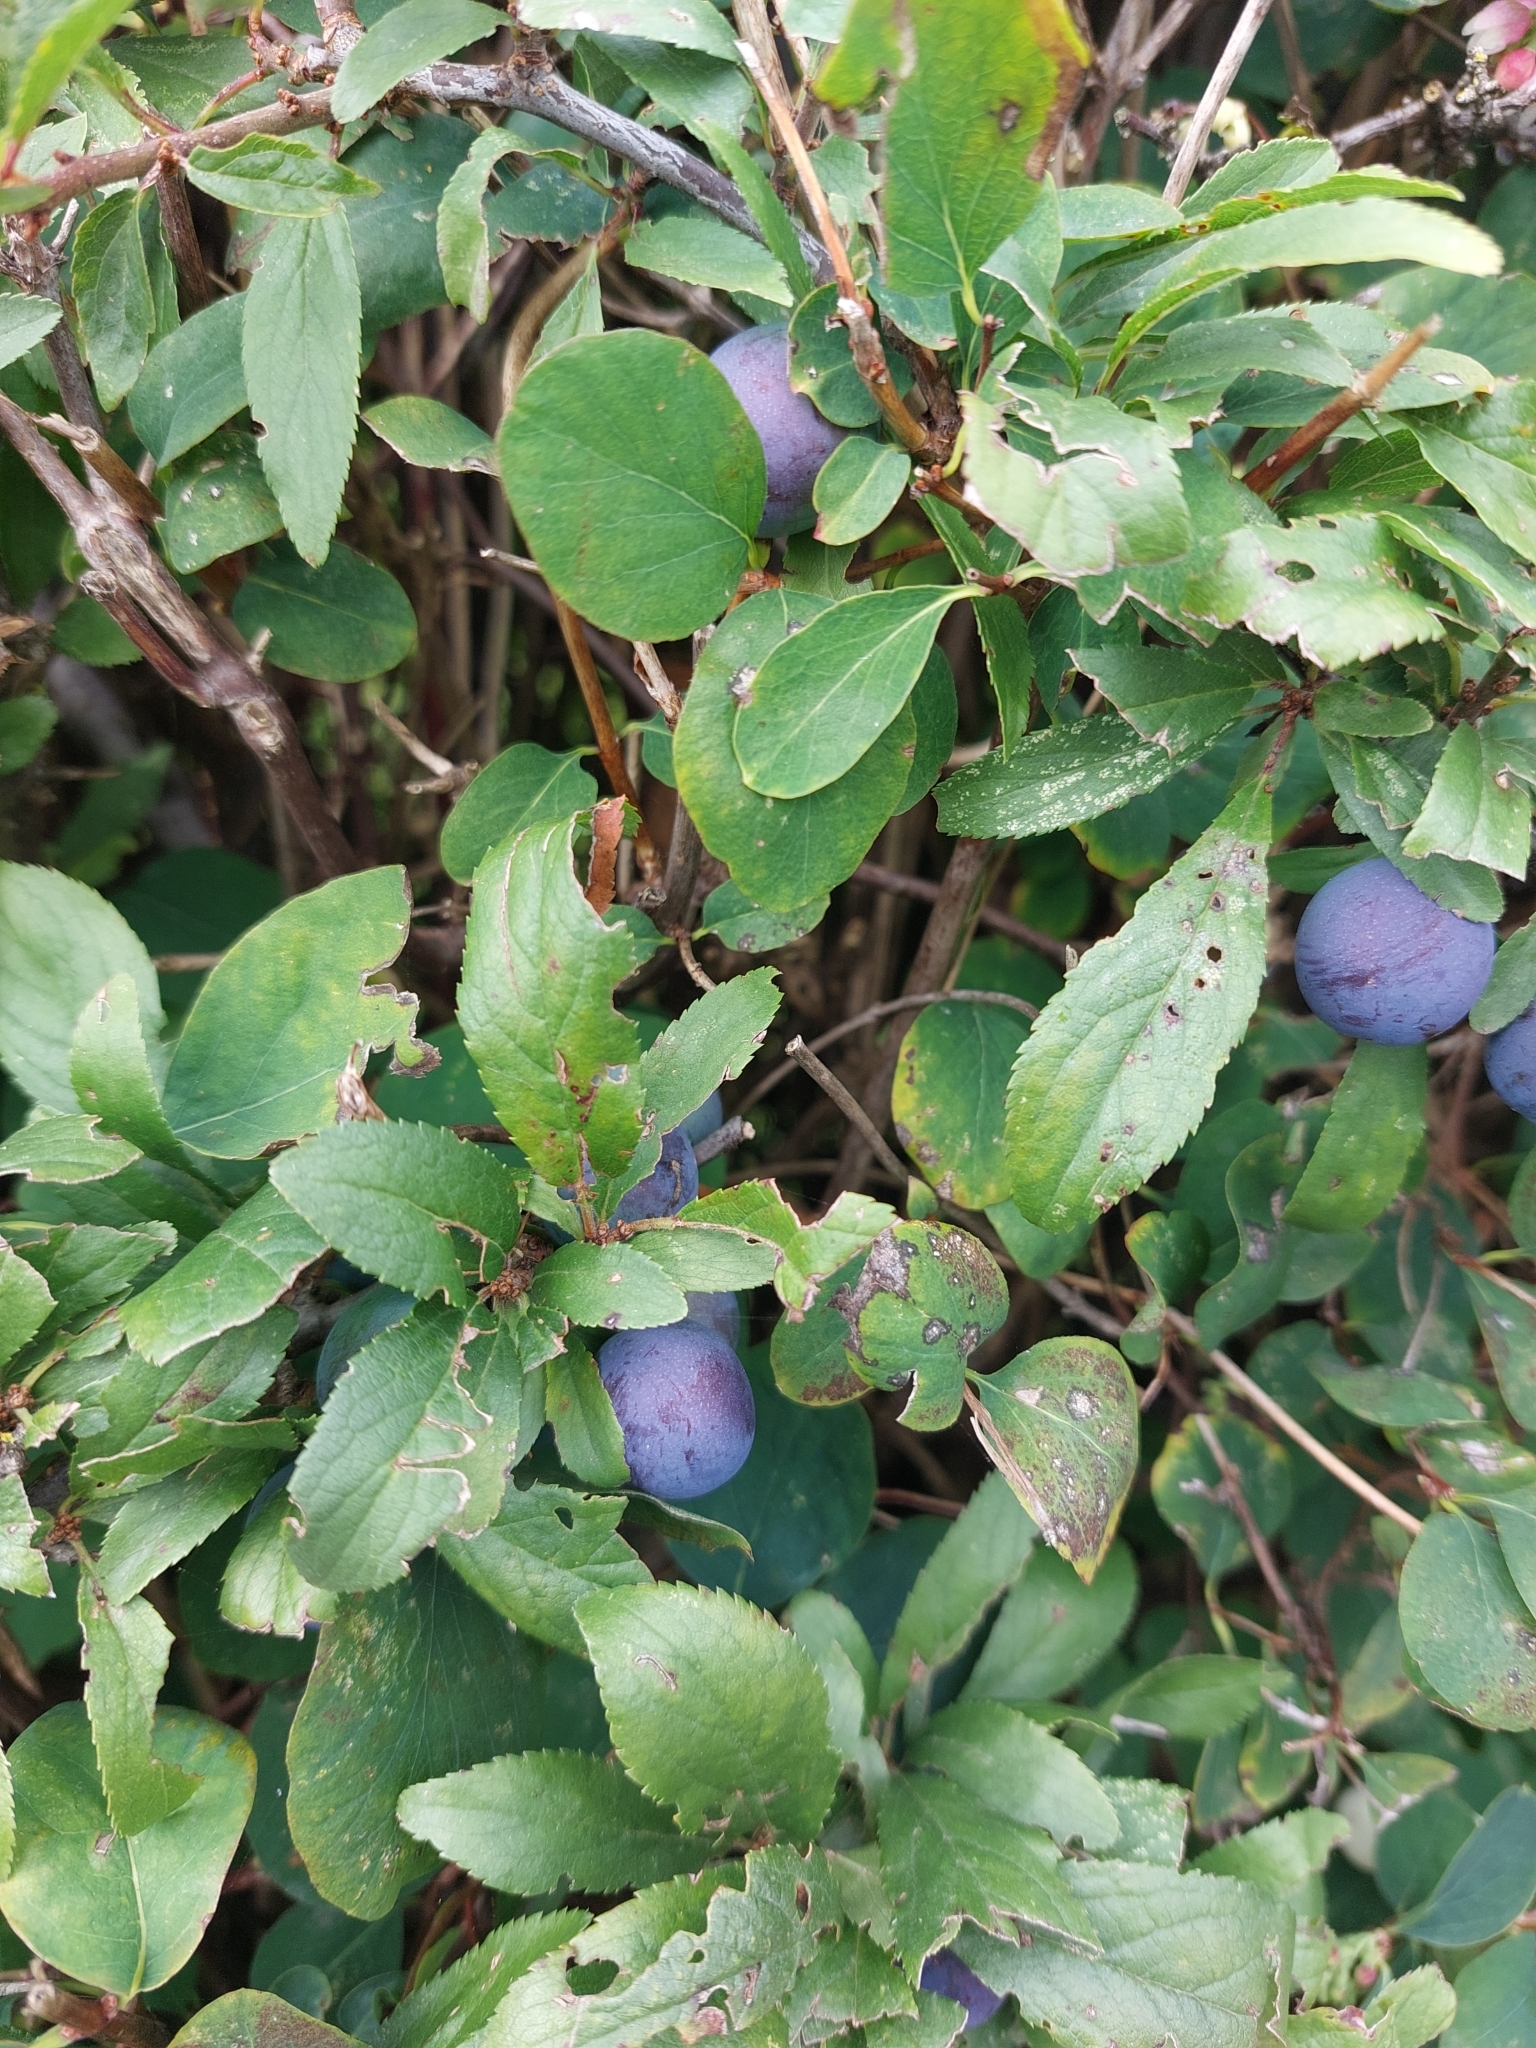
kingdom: Plantae
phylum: Tracheophyta
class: Magnoliopsida
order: Rosales
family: Rosaceae
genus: Prunus
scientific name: Prunus spinosa
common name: Blackthorn
